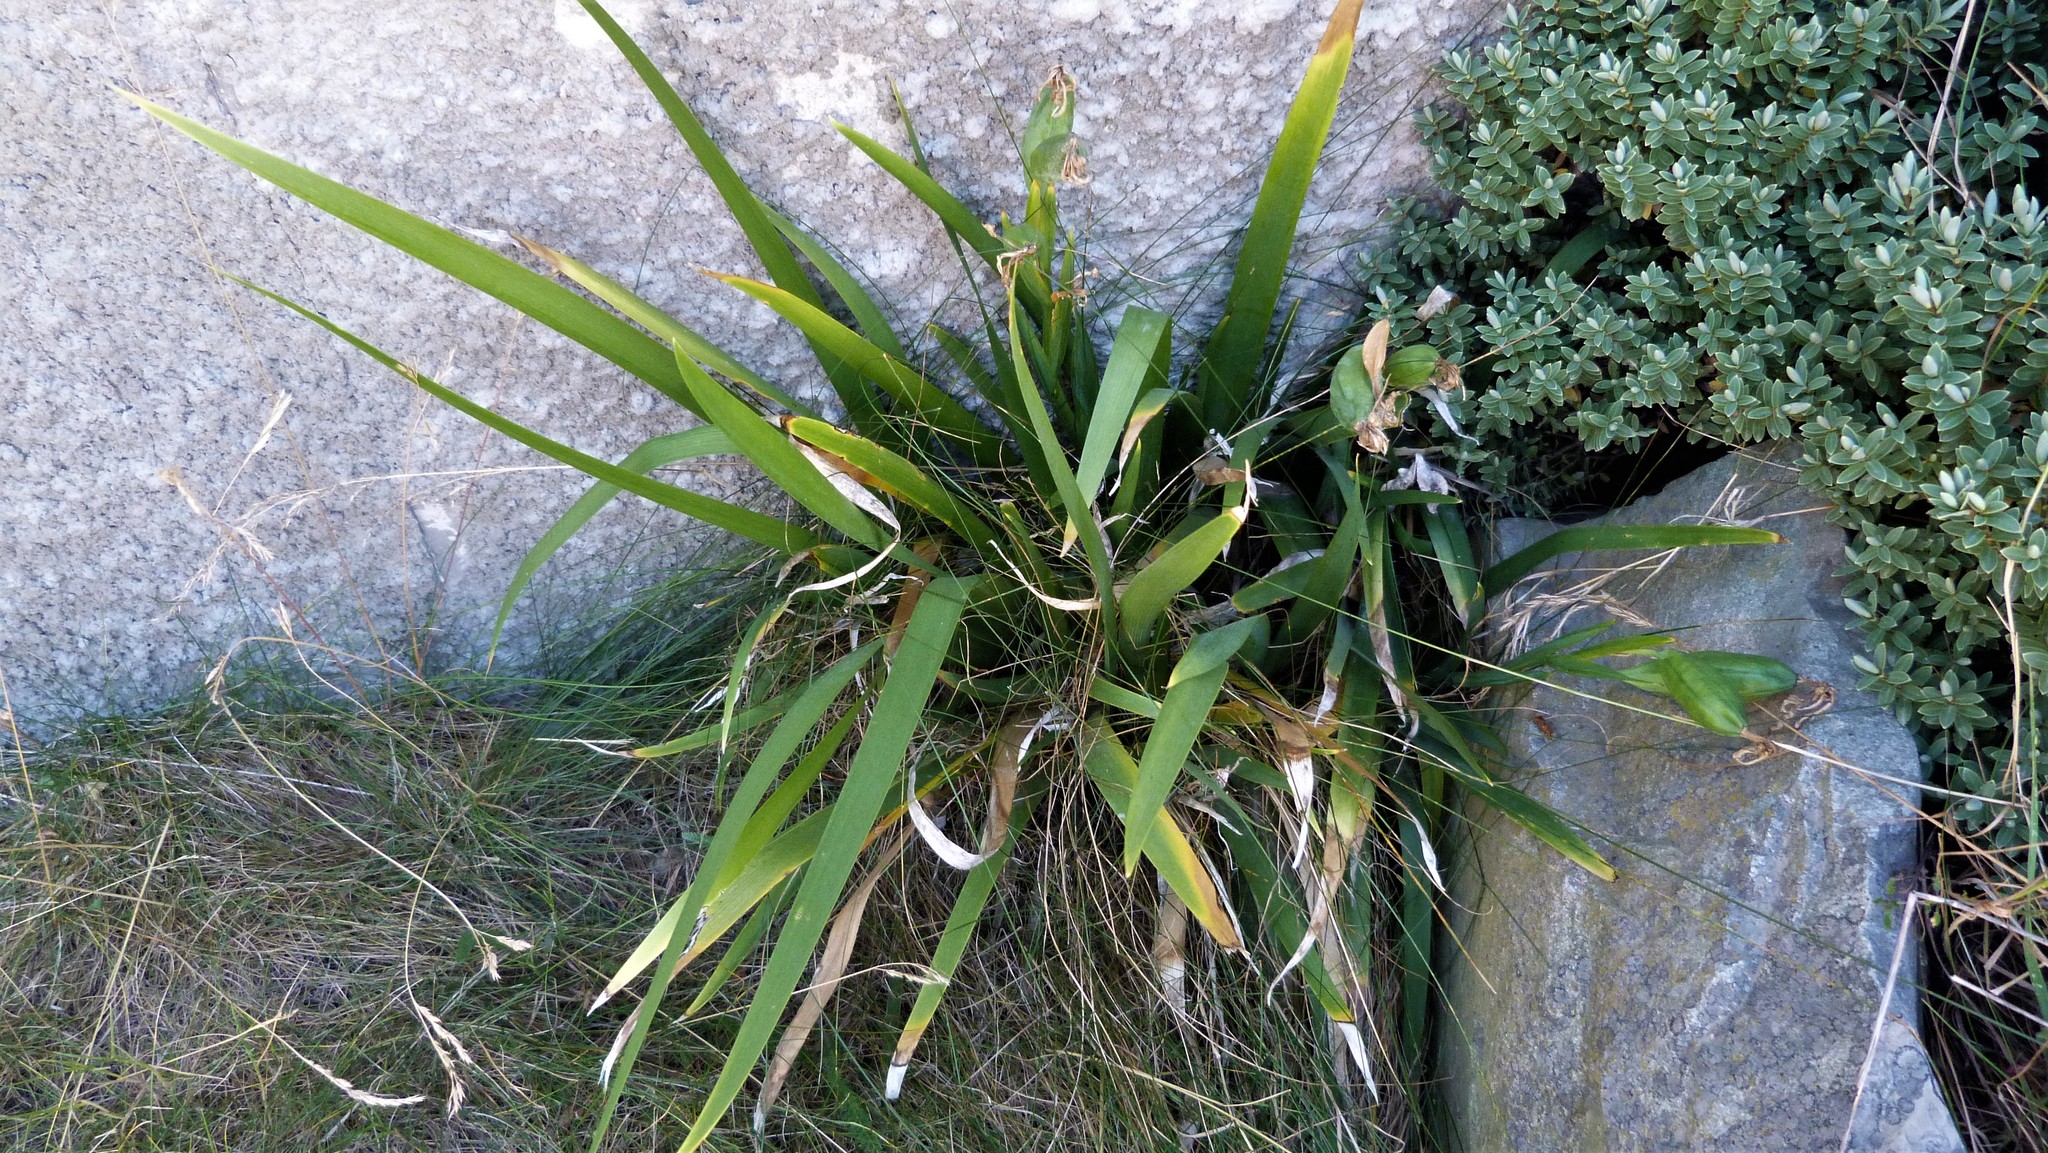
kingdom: Plantae
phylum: Tracheophyta
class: Liliopsida
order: Asparagales
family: Iridaceae
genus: Iris
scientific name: Iris foetidissima
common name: Stinking iris
